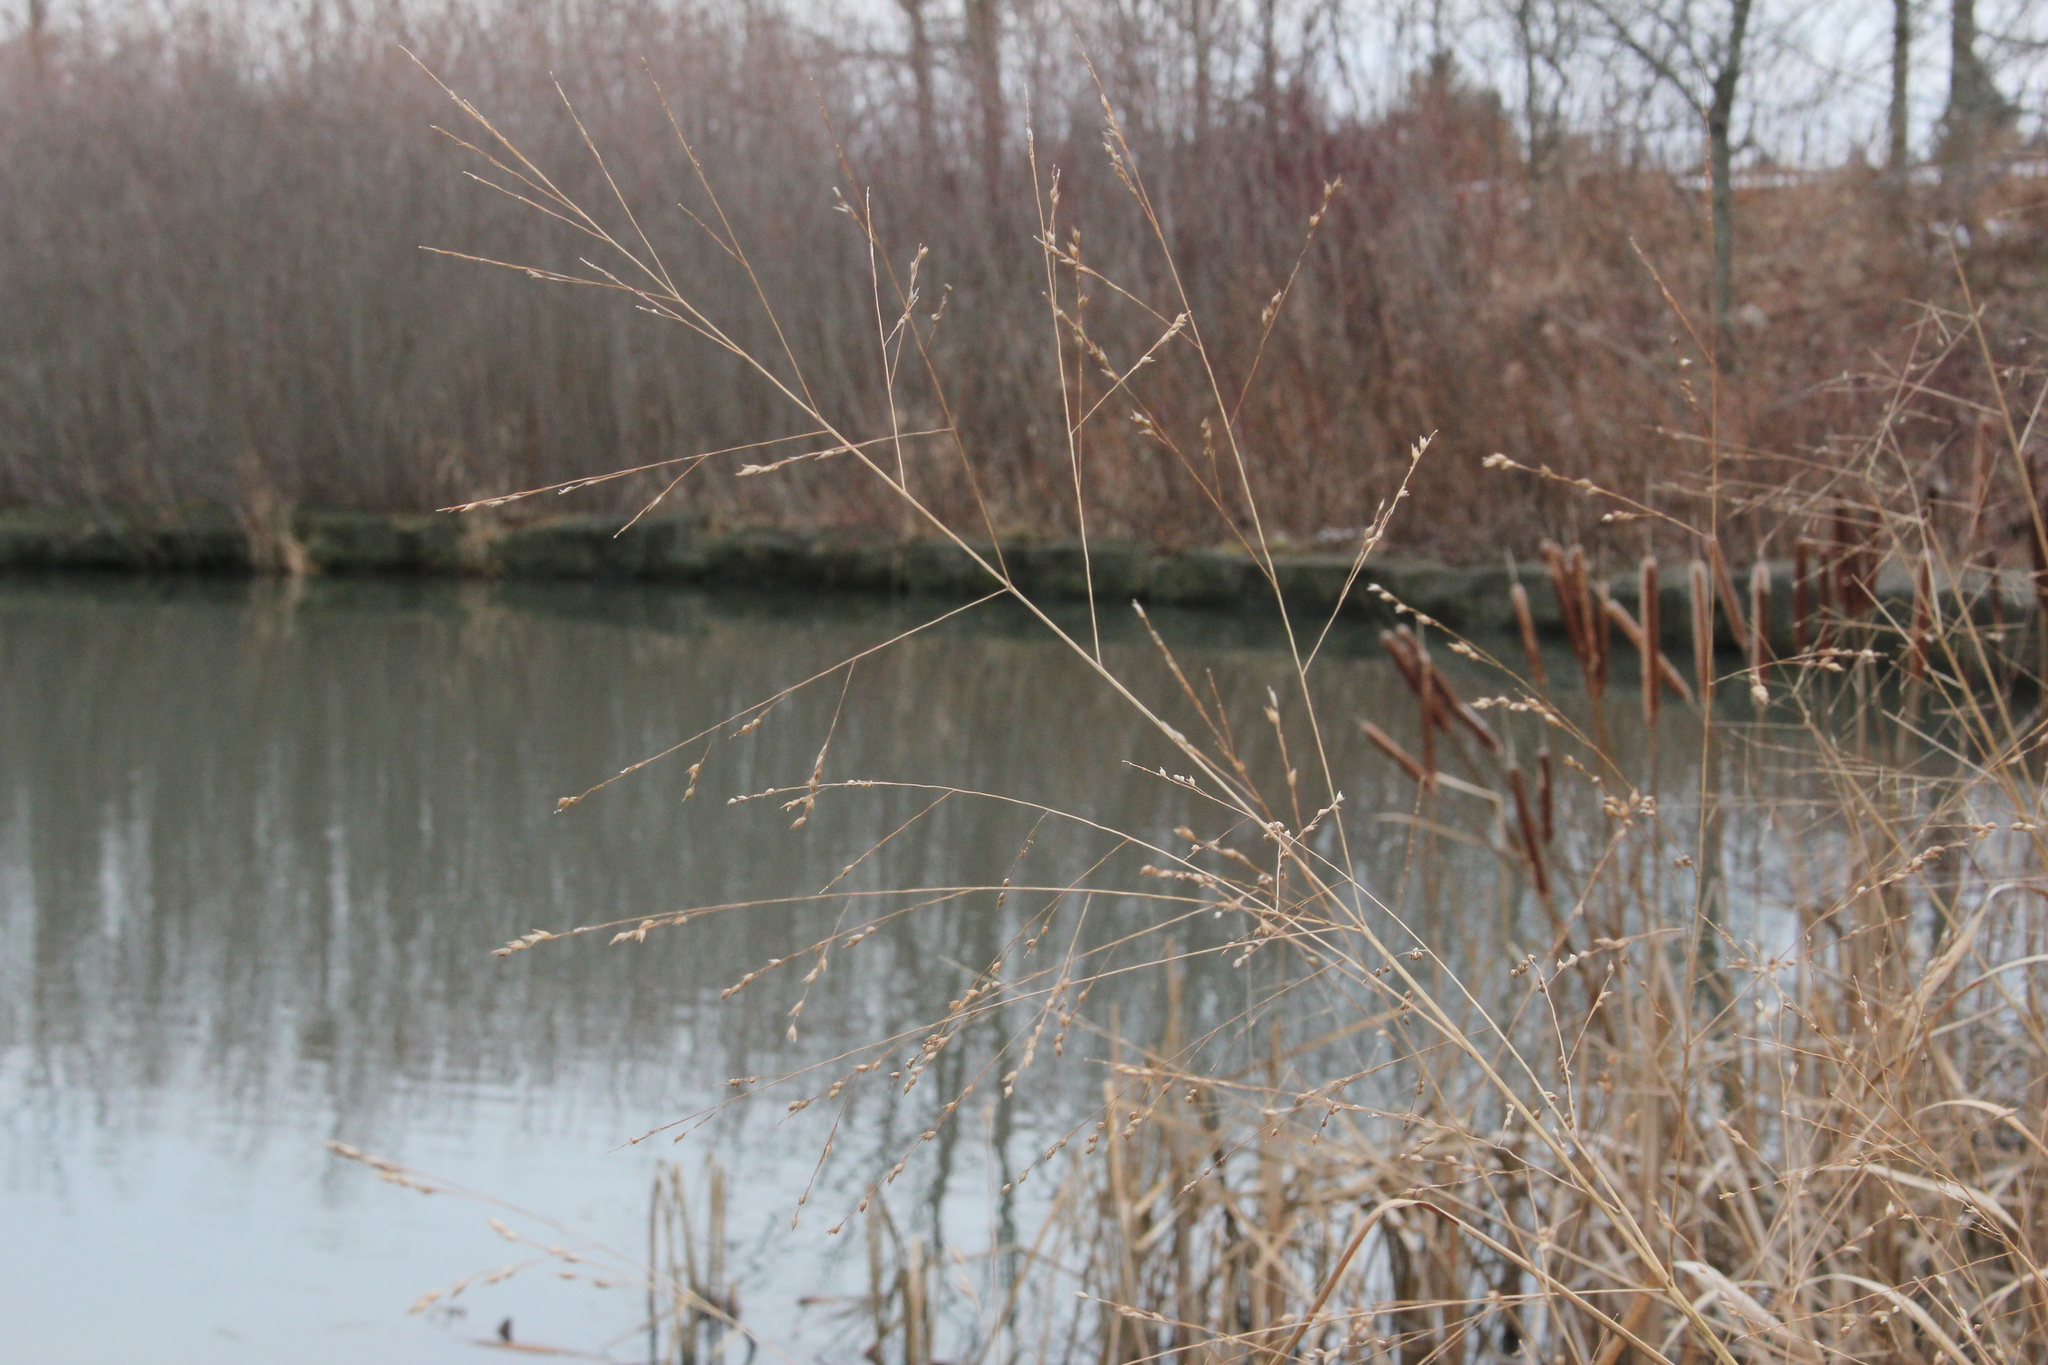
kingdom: Plantae
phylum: Tracheophyta
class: Liliopsida
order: Poales
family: Poaceae
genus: Panicum
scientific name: Panicum virgatum
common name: Switchgrass
